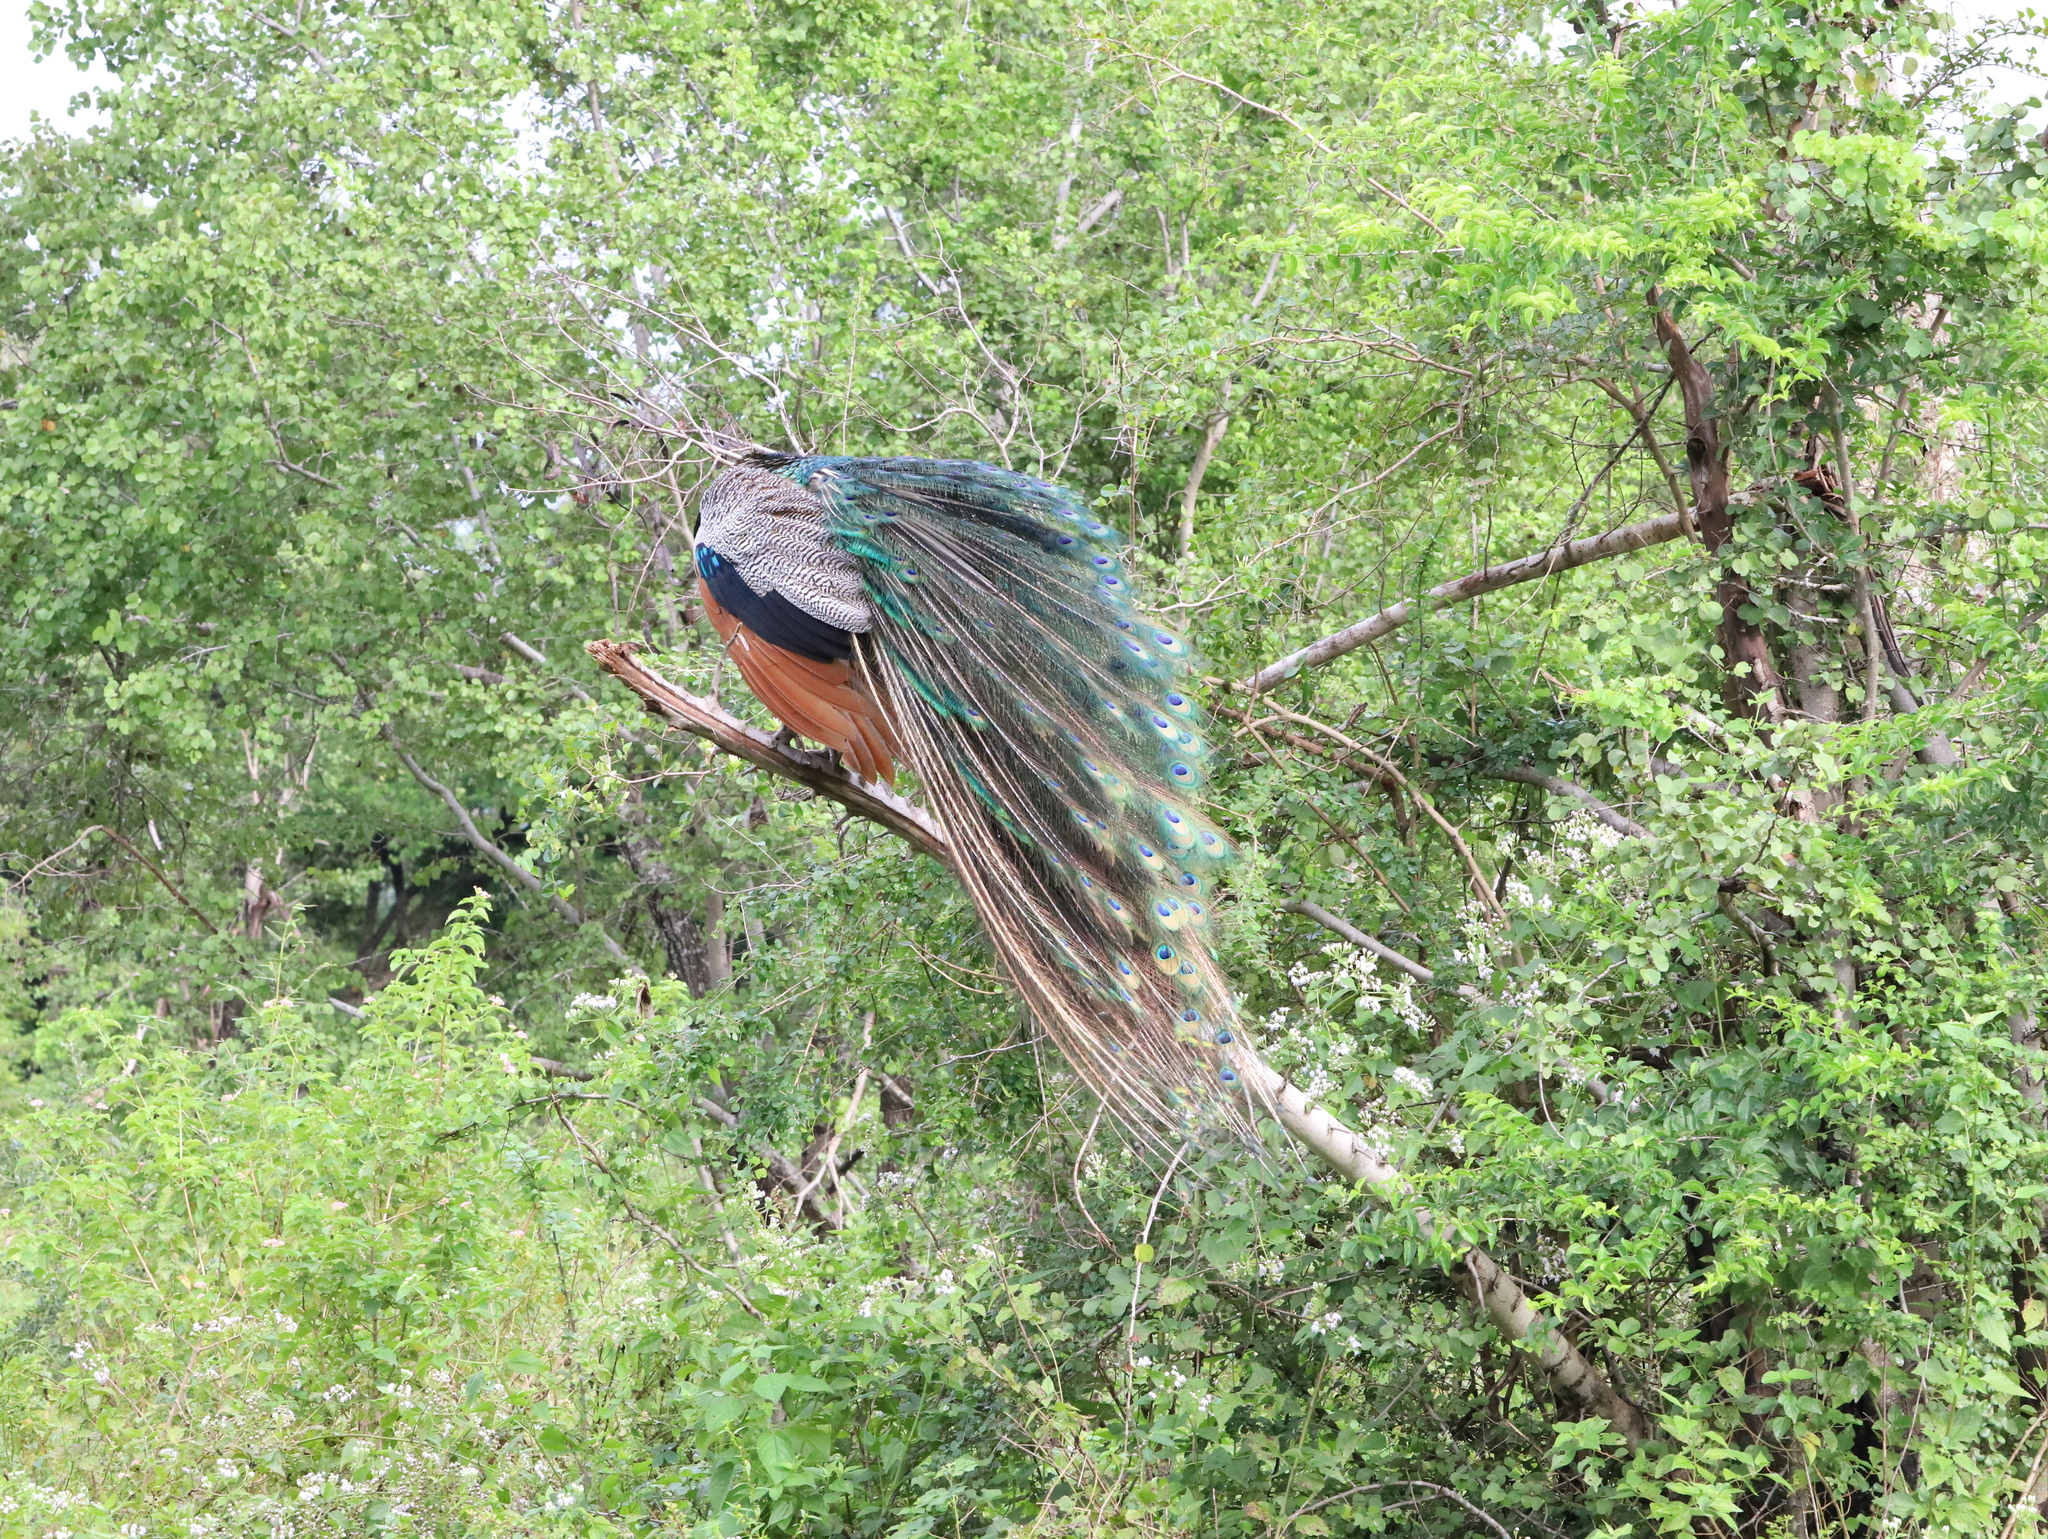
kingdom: Animalia
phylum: Chordata
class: Aves
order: Galliformes
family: Phasianidae
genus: Pavo
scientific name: Pavo cristatus
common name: Indian peafowl
